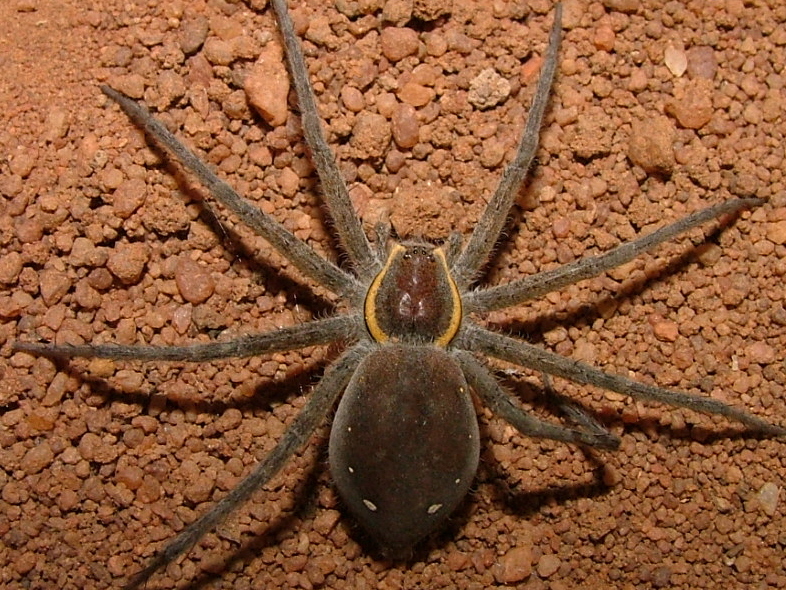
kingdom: Animalia
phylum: Arthropoda
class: Arachnida
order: Araneae
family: Pisauridae
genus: Nilus
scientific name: Nilus margaritatus
